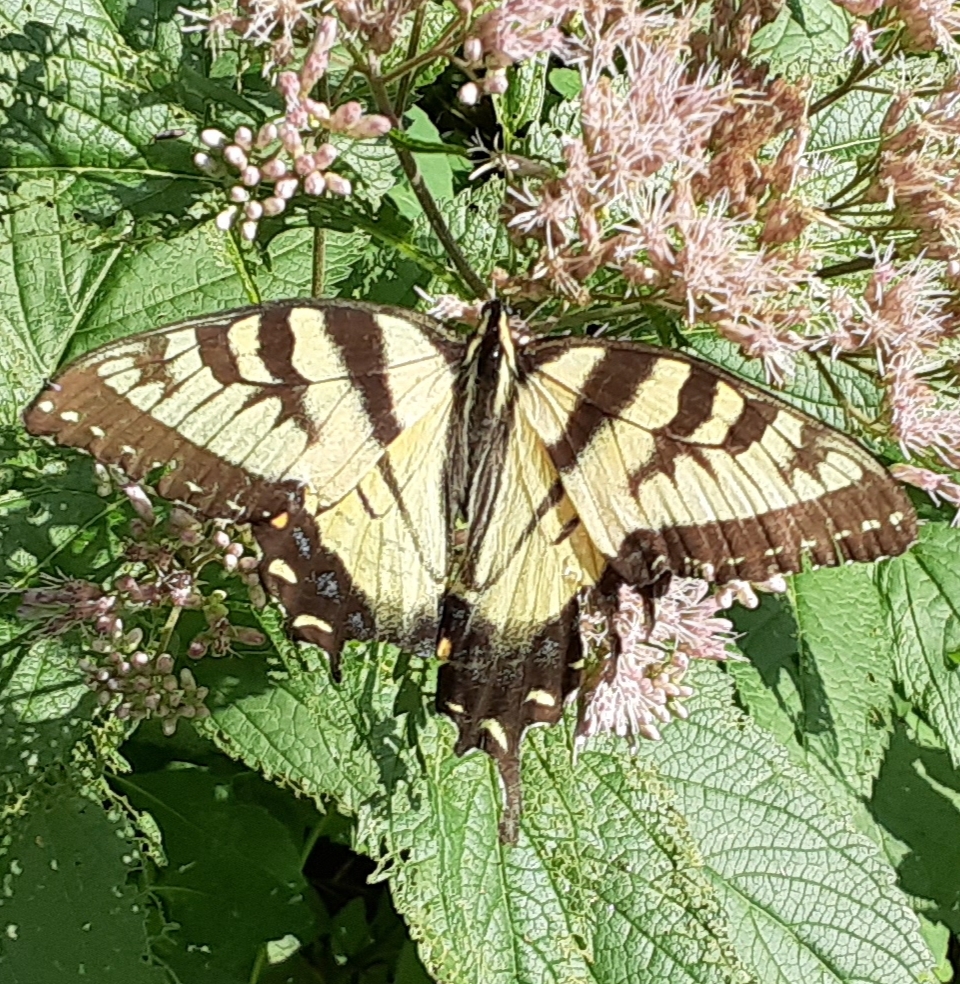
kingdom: Animalia
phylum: Arthropoda
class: Insecta
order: Lepidoptera
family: Papilionidae
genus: Papilio
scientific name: Papilio glaucus
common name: Tiger swallowtail
